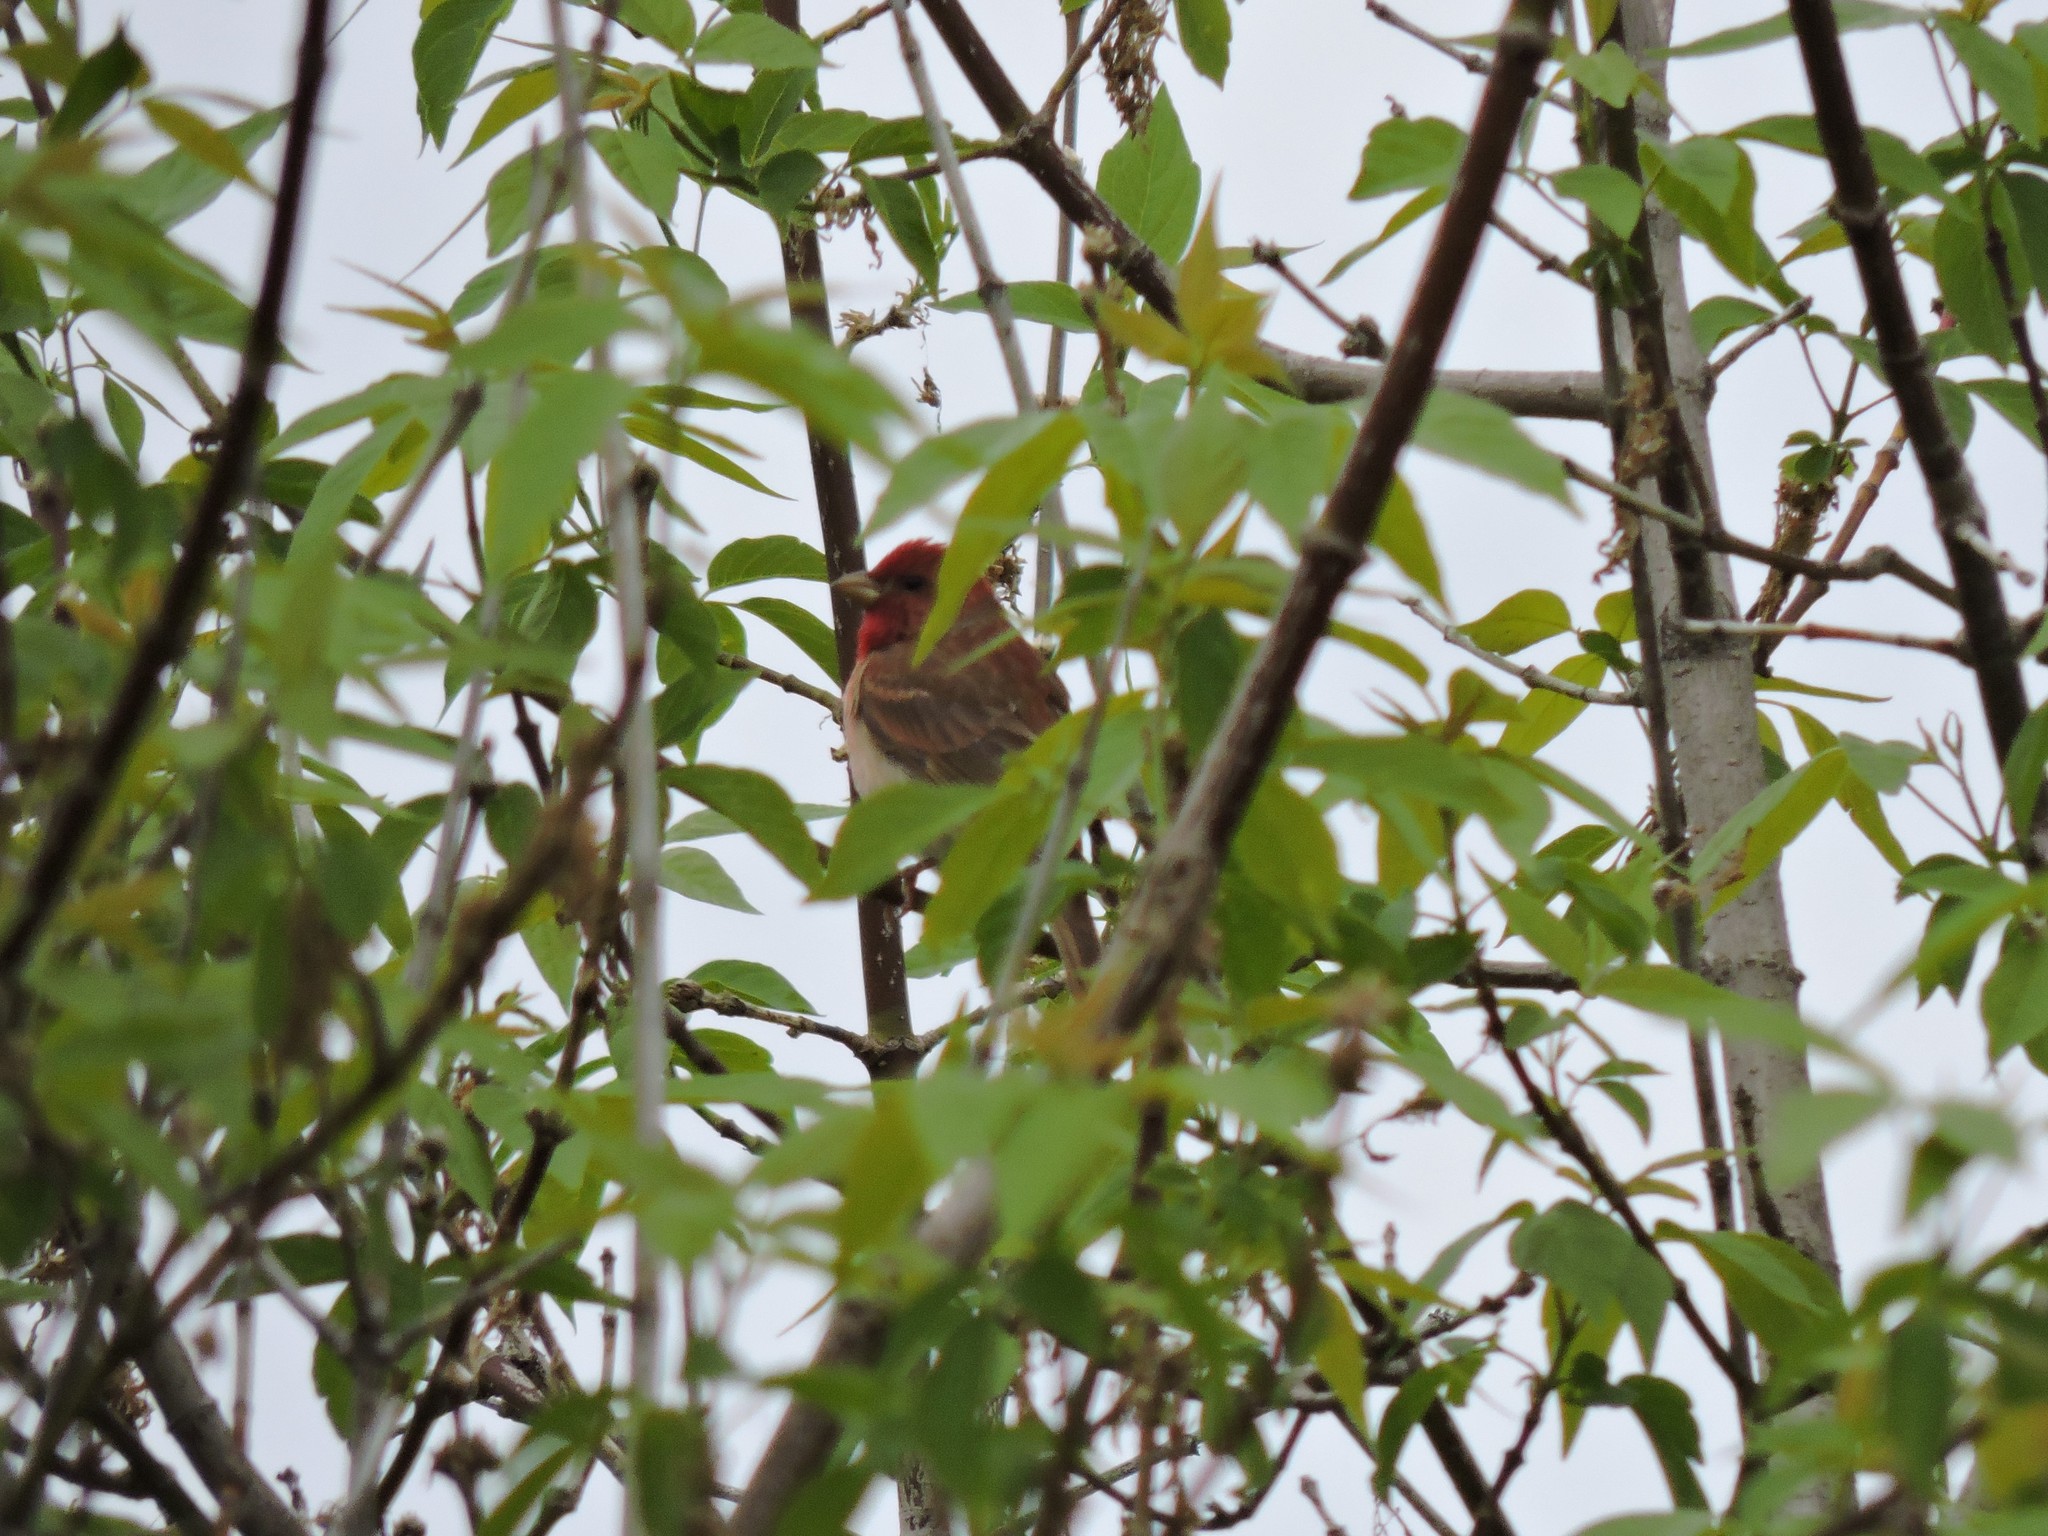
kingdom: Animalia
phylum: Chordata
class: Aves
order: Passeriformes
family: Fringillidae
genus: Carpodacus
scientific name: Carpodacus erythrinus
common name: Common rosefinch
